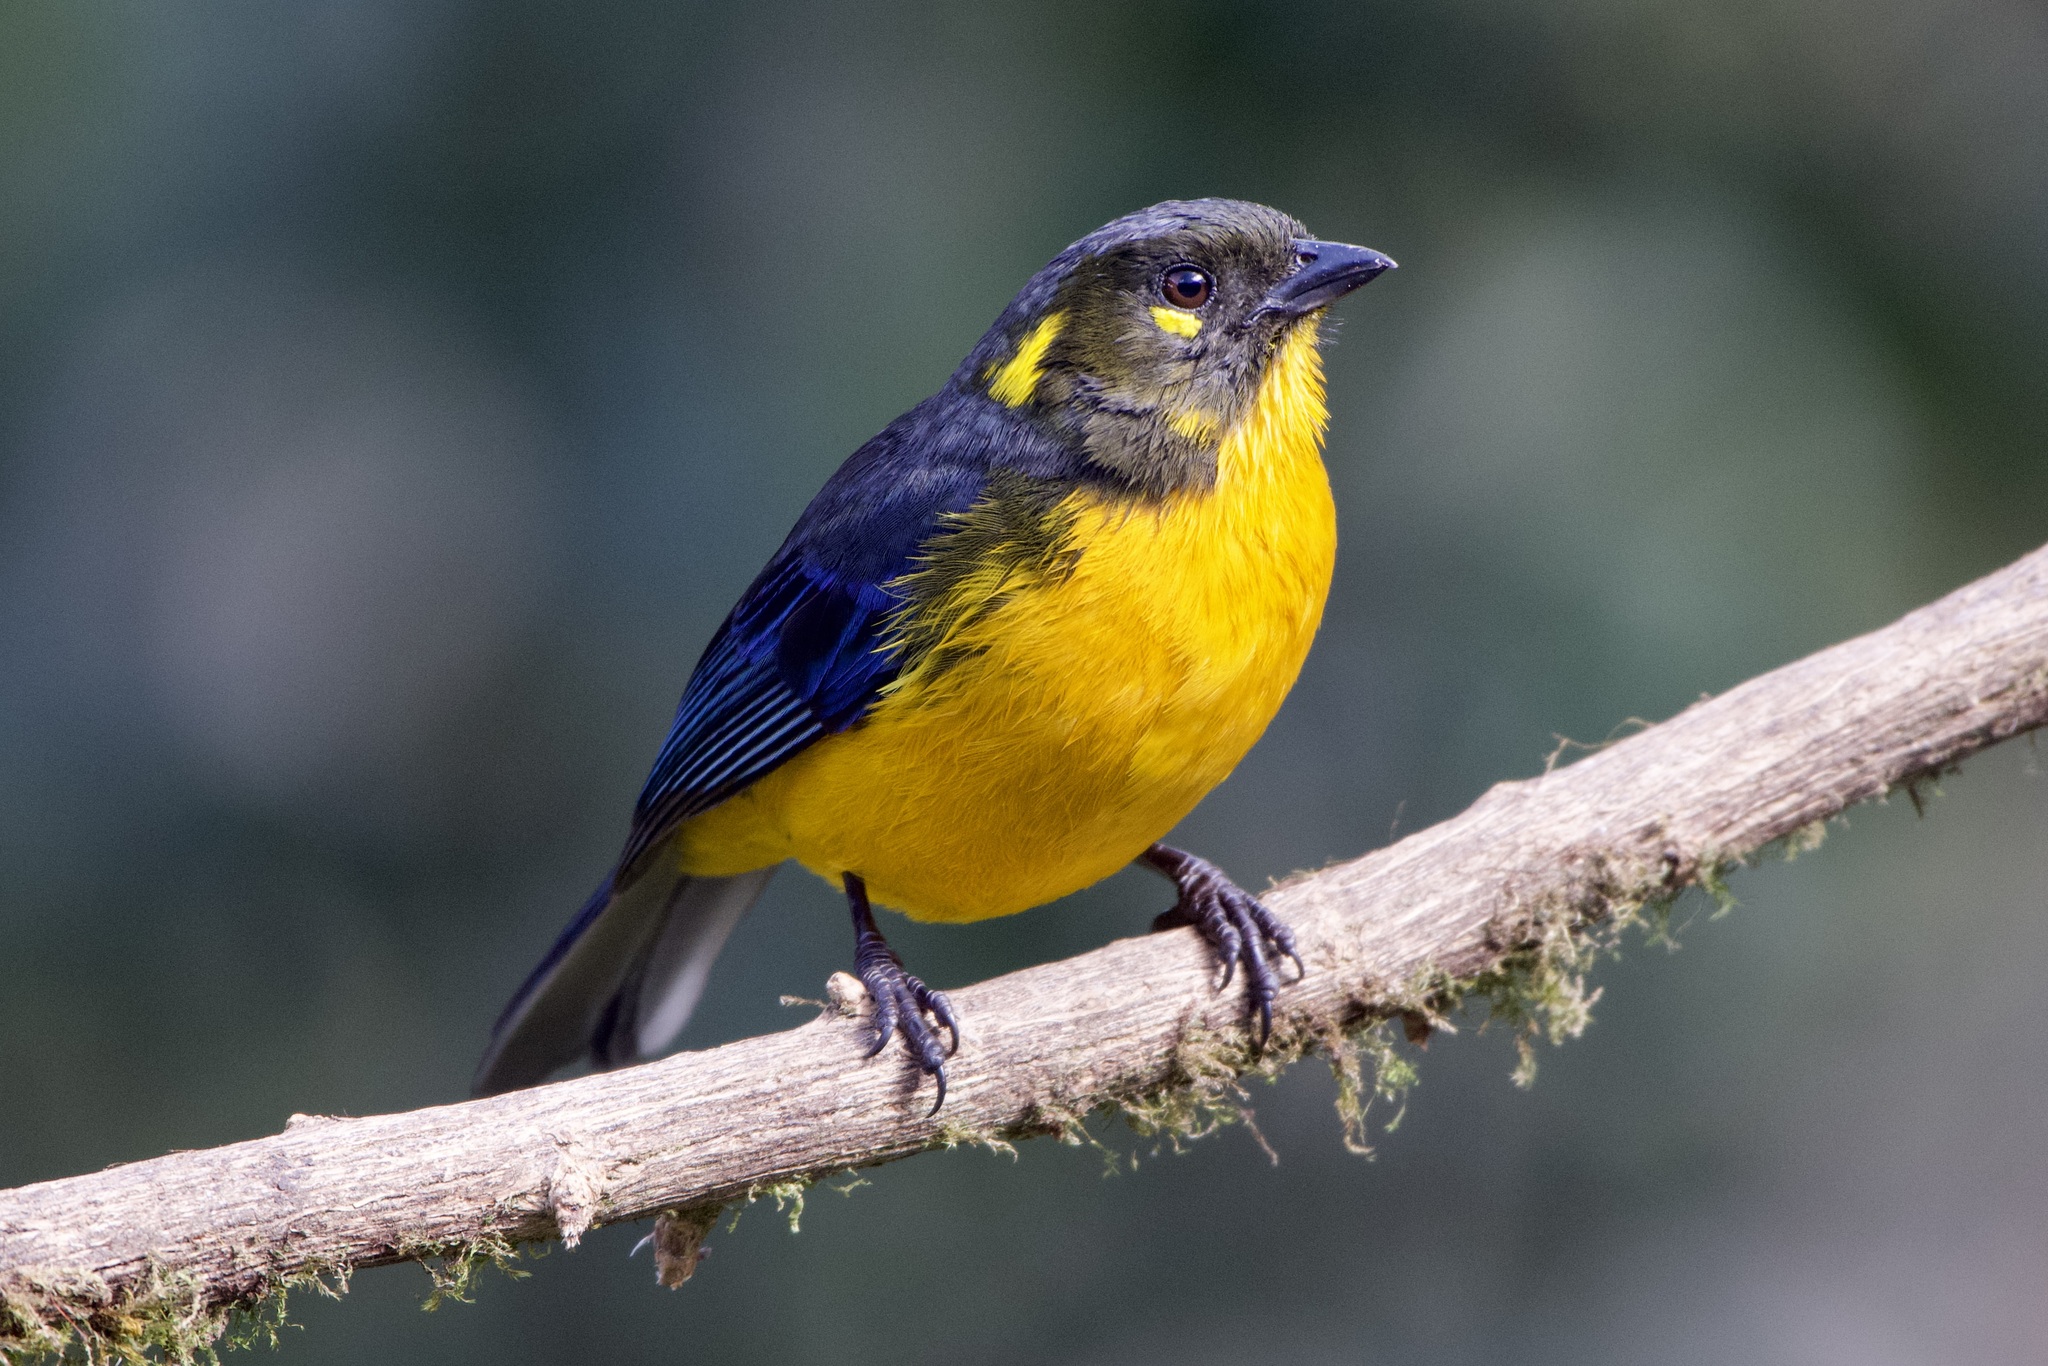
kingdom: Animalia
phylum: Chordata
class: Aves
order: Passeriformes
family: Thraupidae
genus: Anisognathus
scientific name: Anisognathus lacrymosus
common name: Lacrimose mountain-tanager
